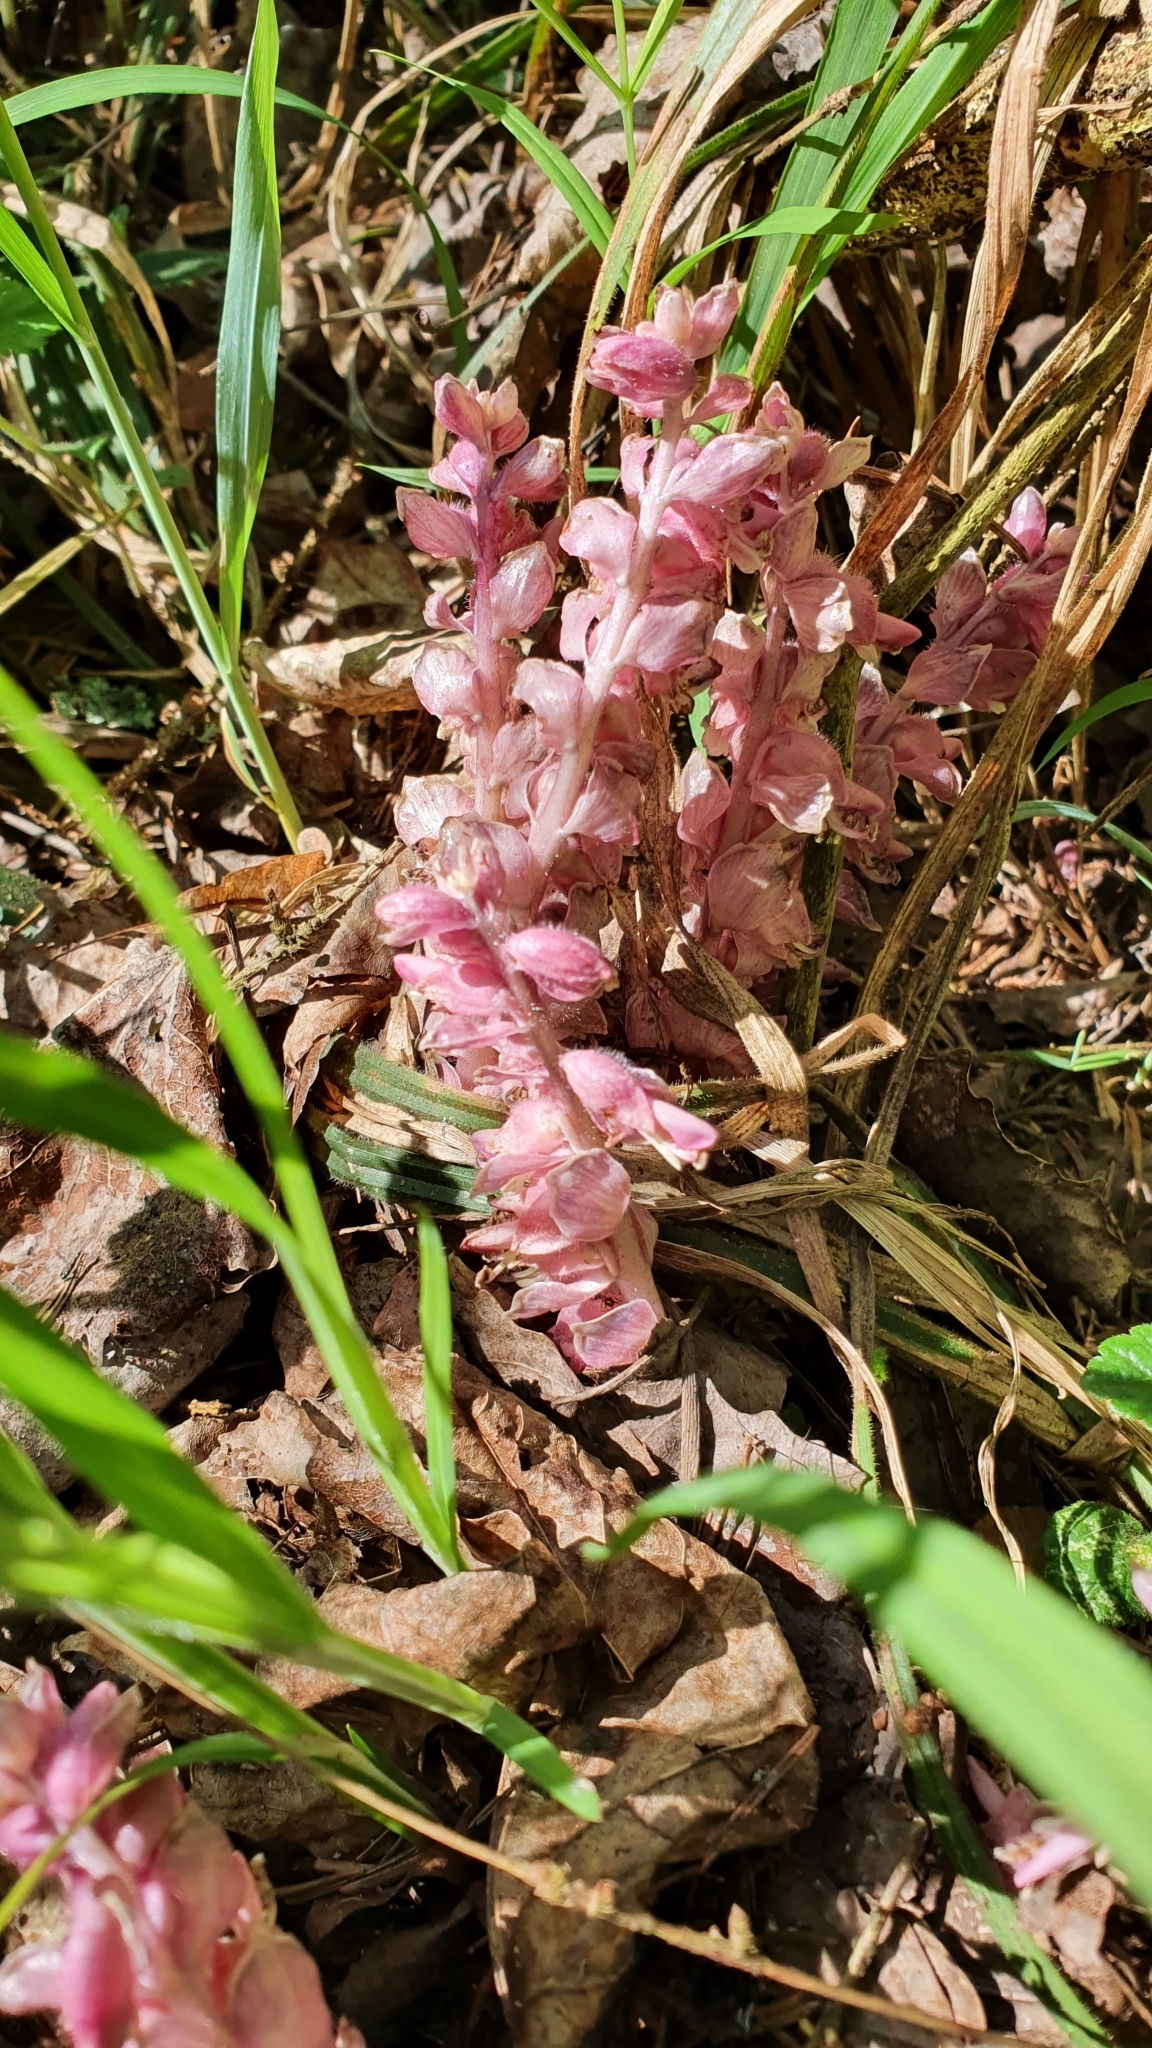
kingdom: Plantae
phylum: Tracheophyta
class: Magnoliopsida
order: Lamiales
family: Orobanchaceae
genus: Lathraea
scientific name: Lathraea squamaria
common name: Toothwort
